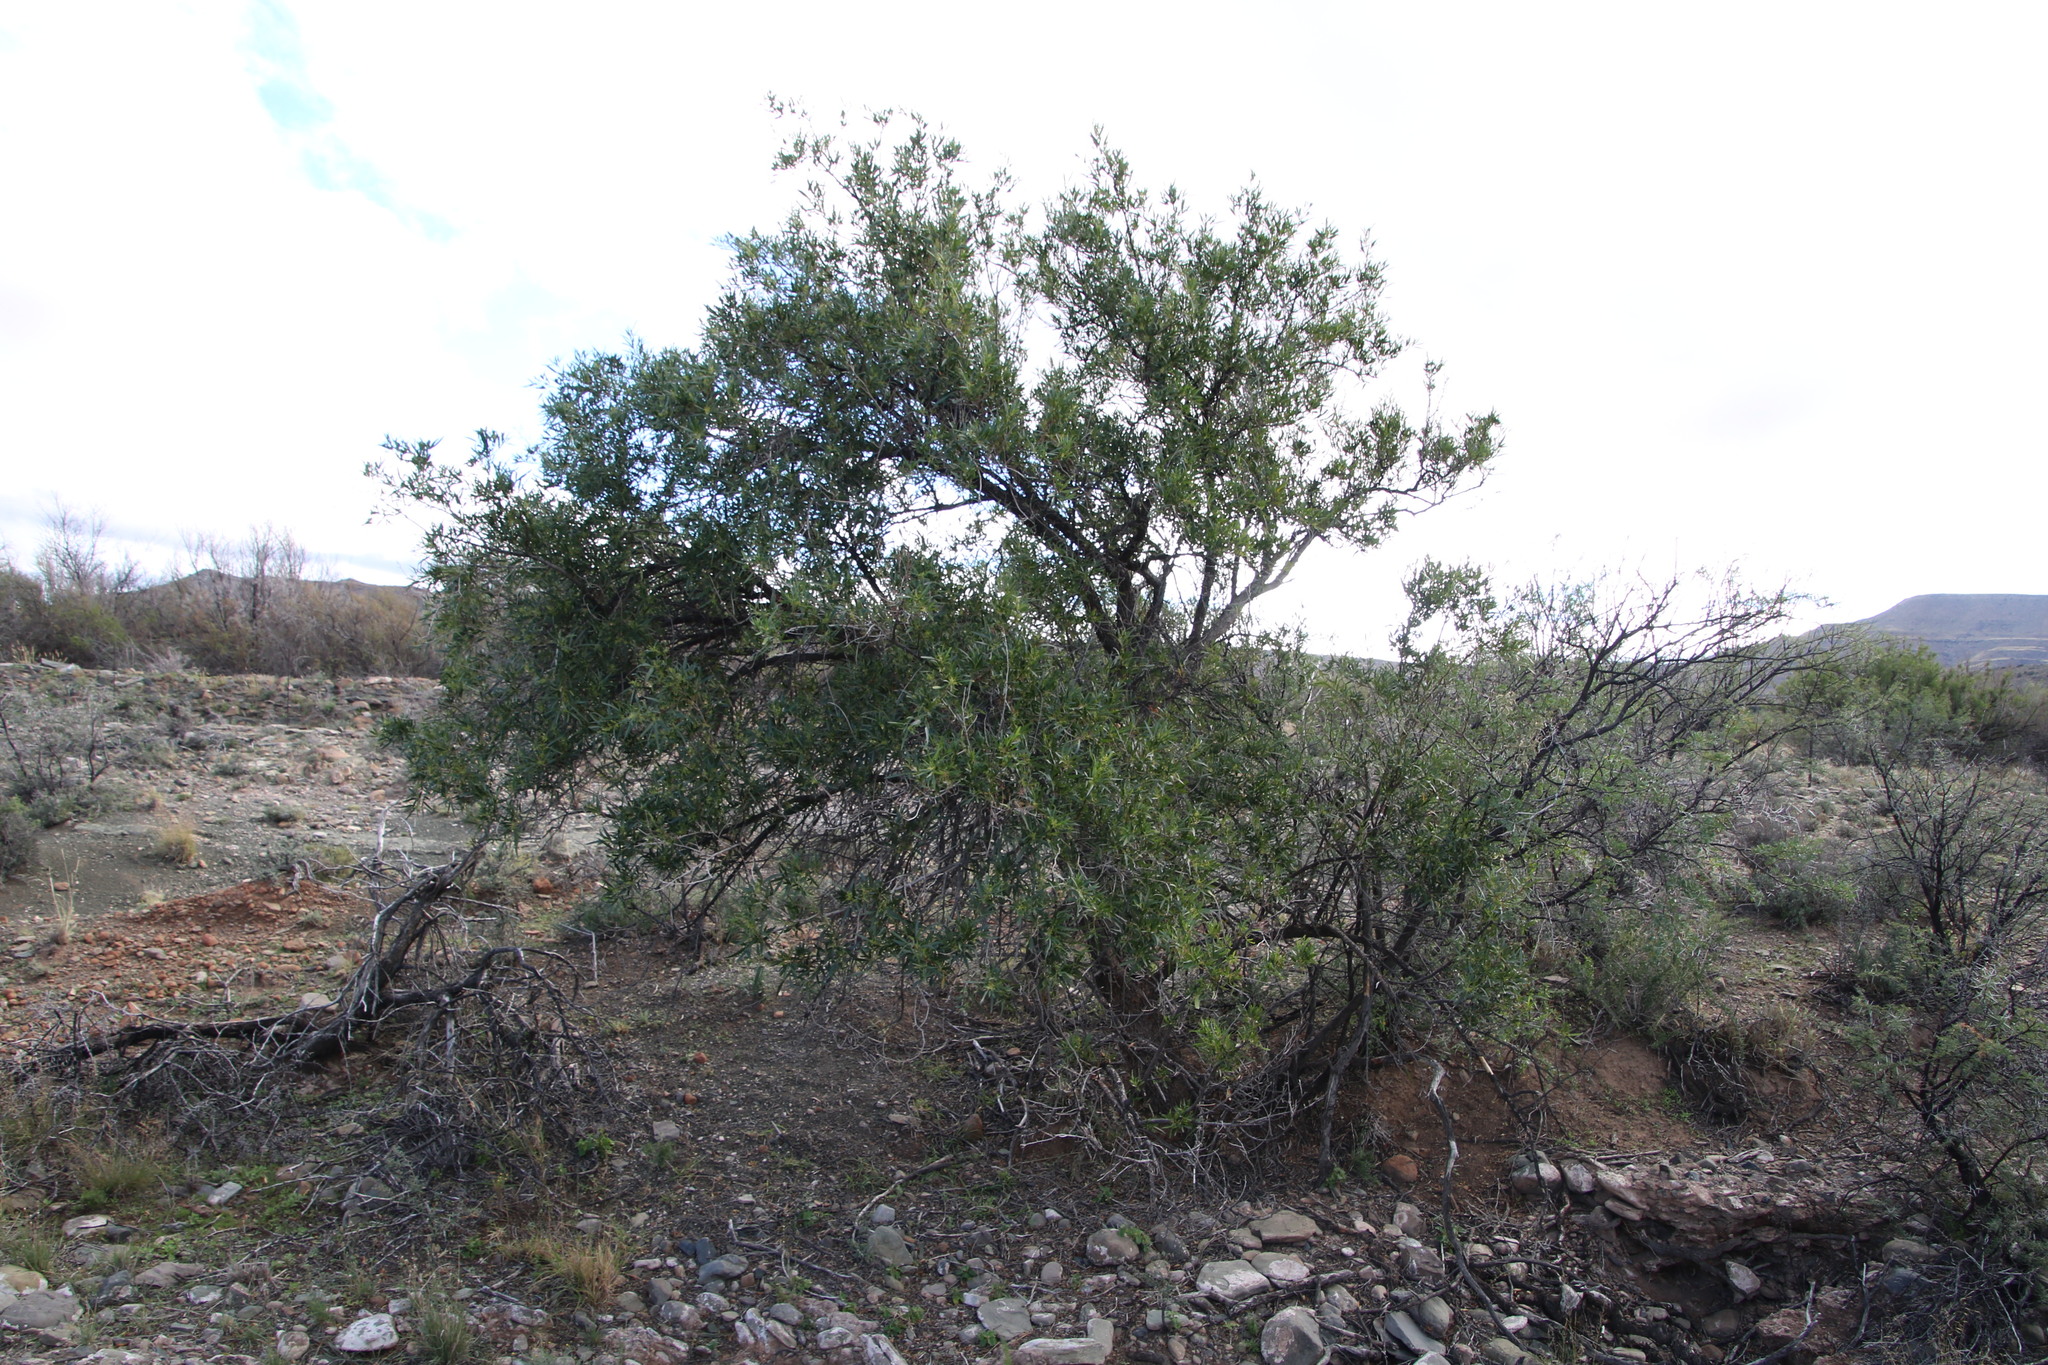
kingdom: Plantae
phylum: Tracheophyta
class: Magnoliopsida
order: Sapindales
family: Anacardiaceae
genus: Searsia
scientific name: Searsia lancea
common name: Cashew
